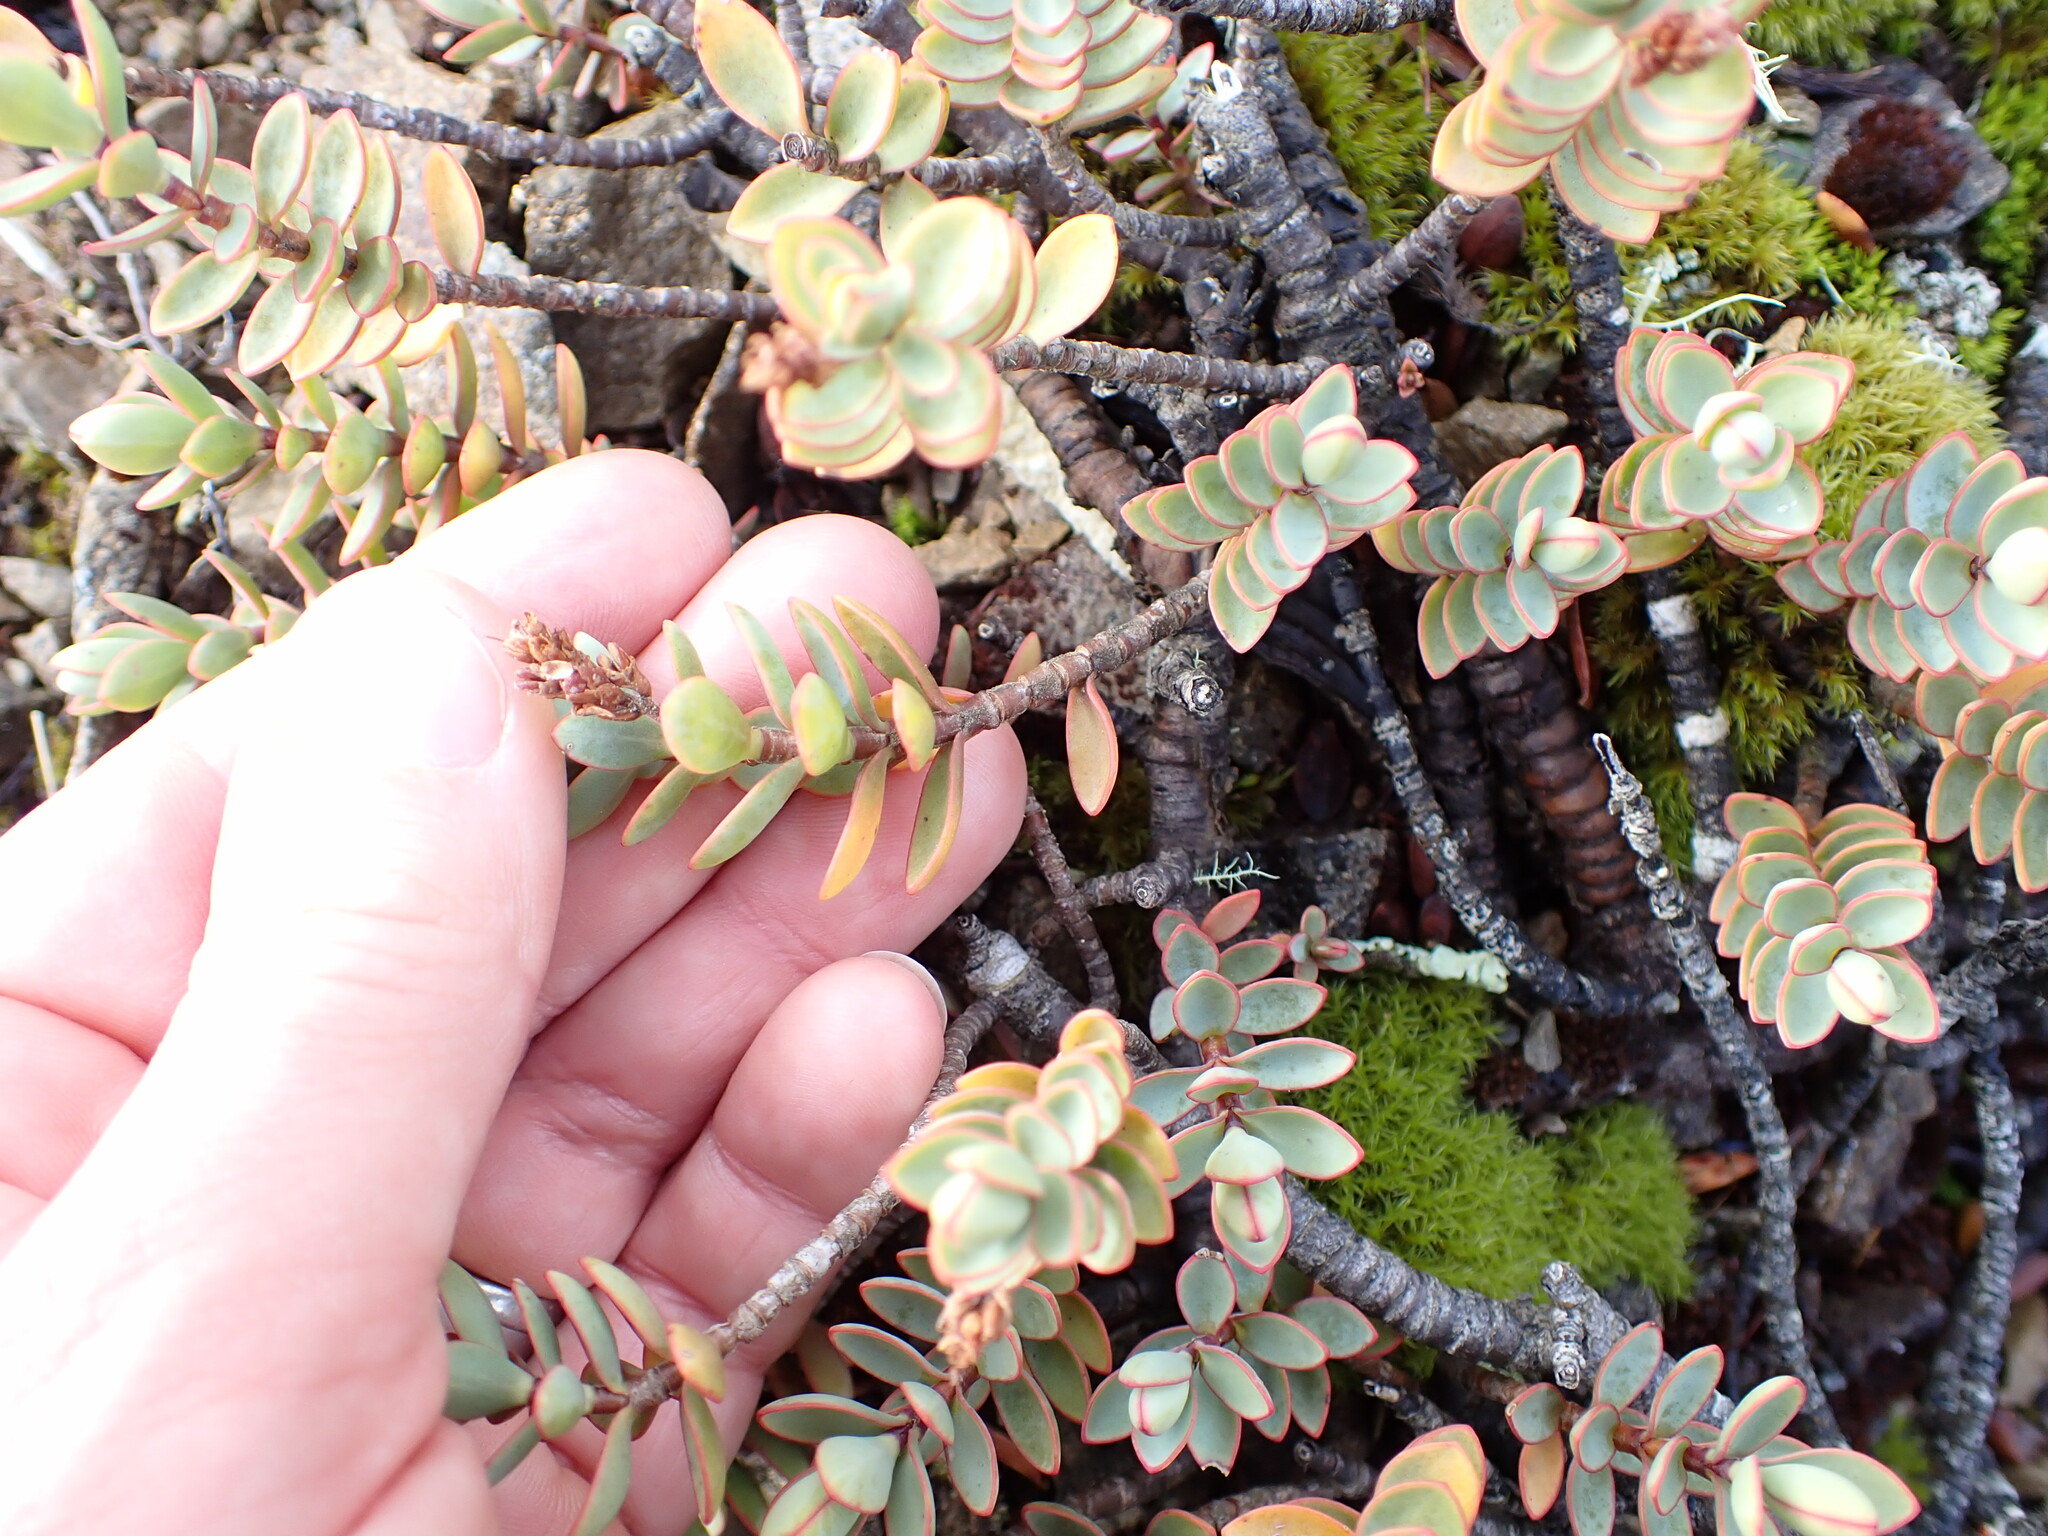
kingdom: Plantae
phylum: Tracheophyta
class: Magnoliopsida
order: Lamiales
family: Plantaginaceae
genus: Veronica
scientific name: Veronica pinguifolia
